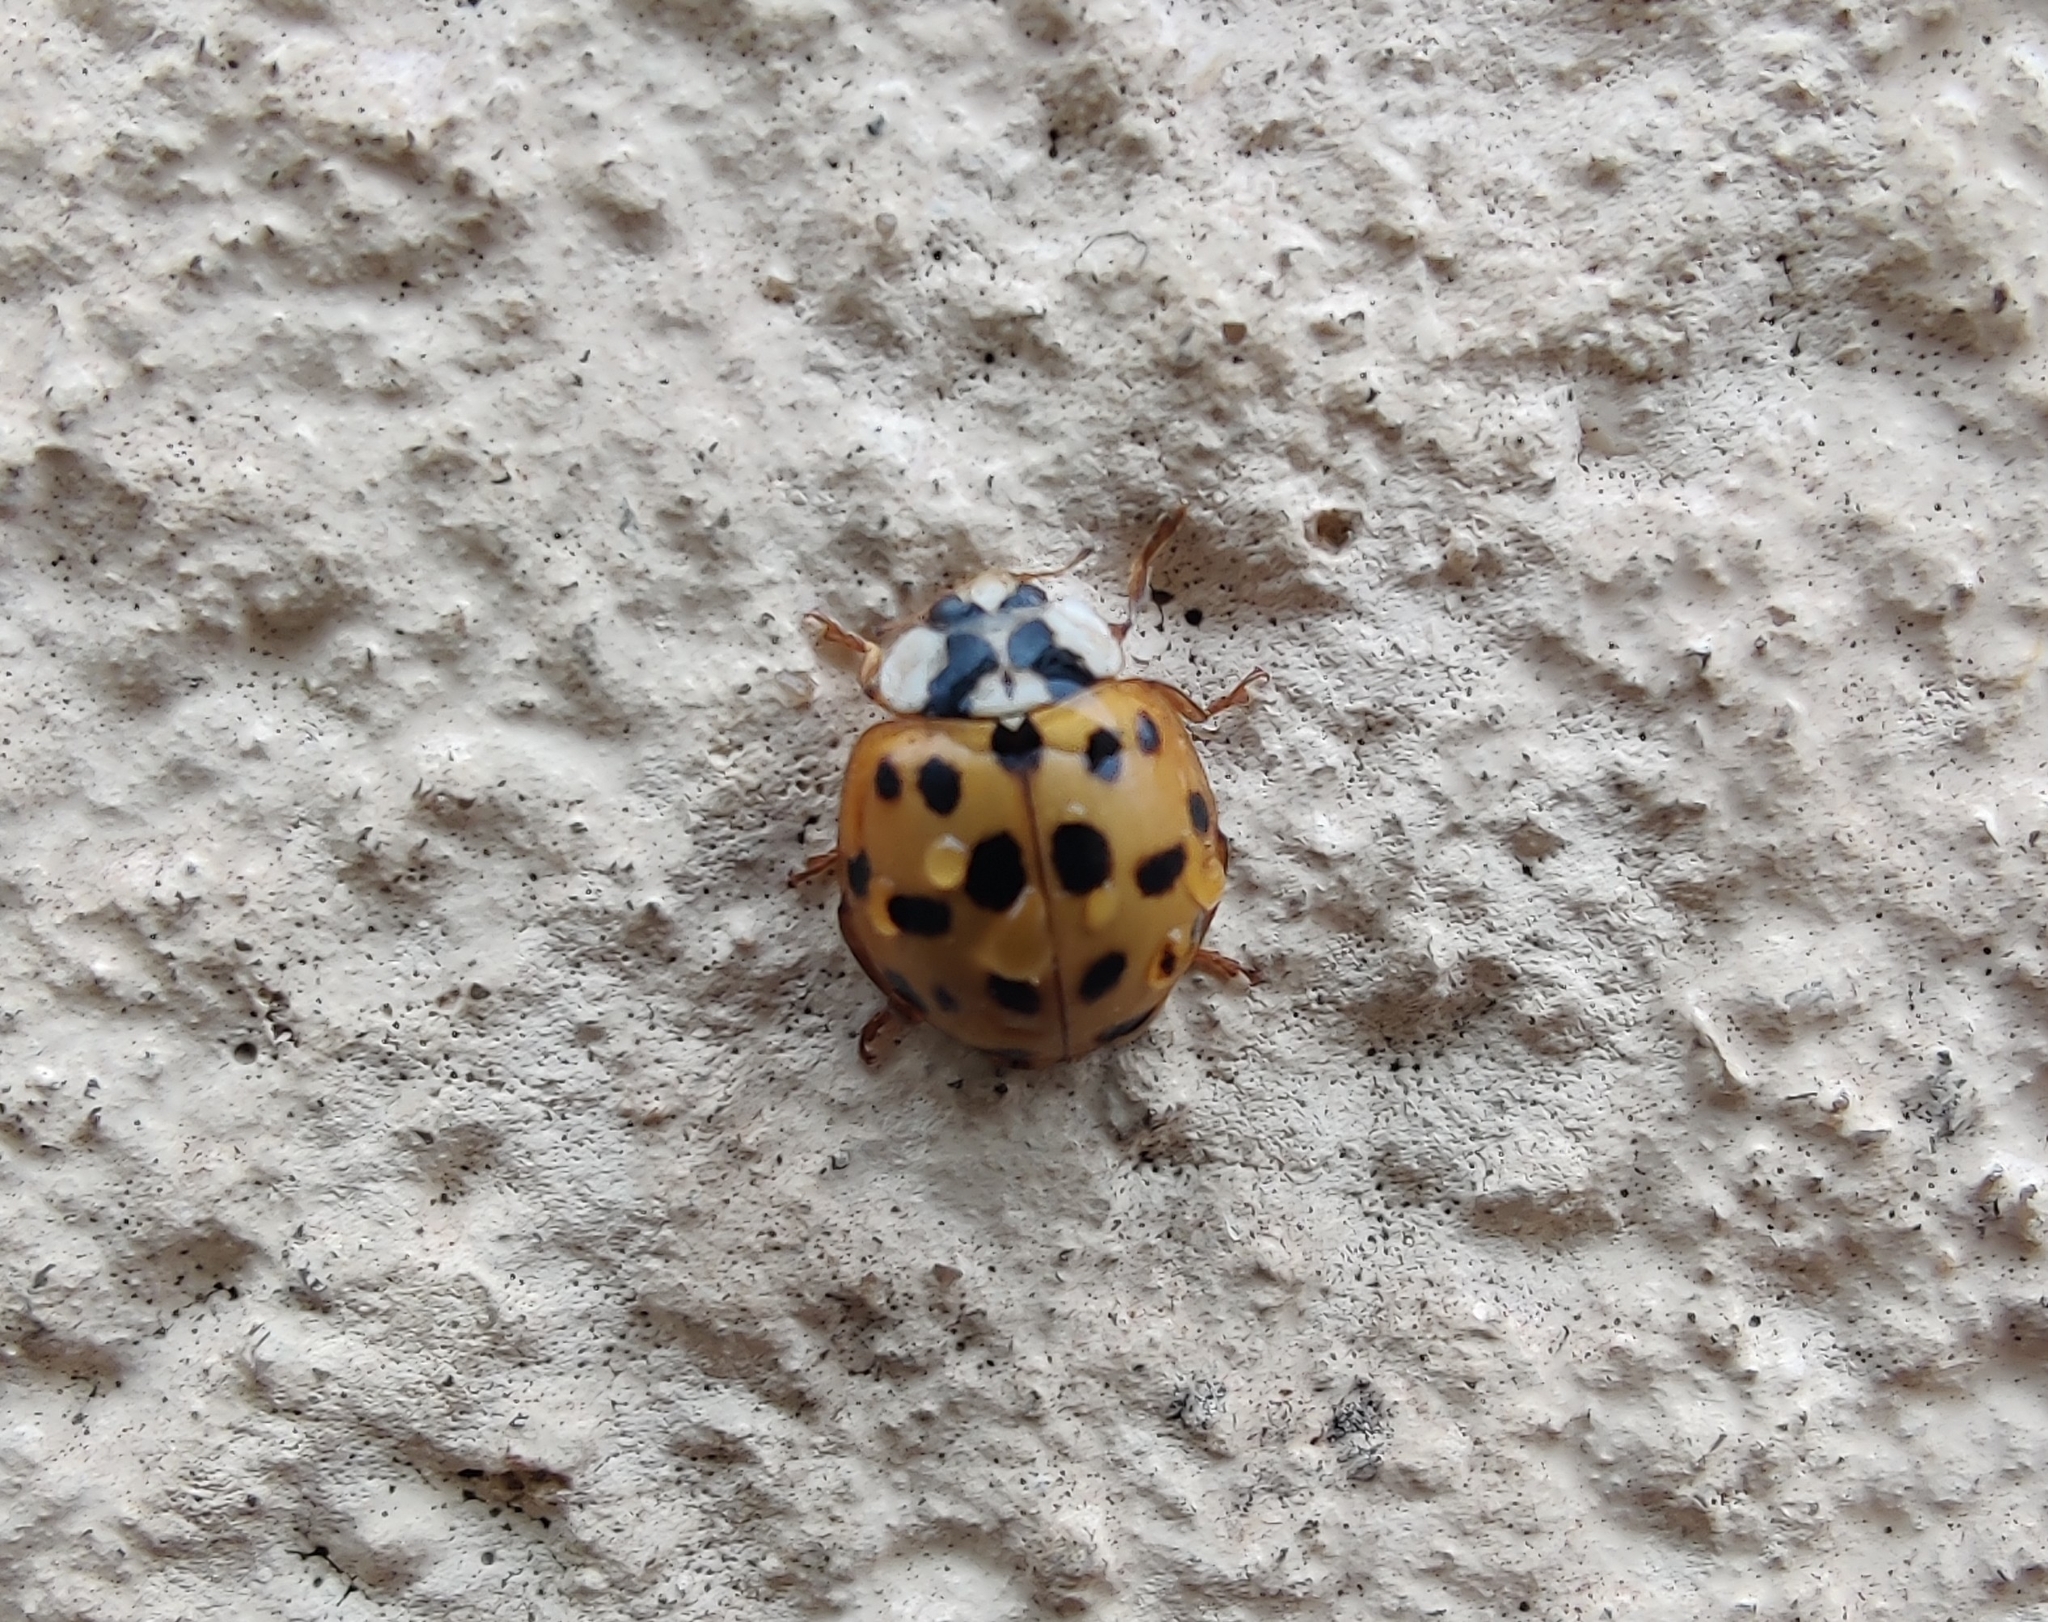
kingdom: Animalia
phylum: Arthropoda
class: Insecta
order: Coleoptera
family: Coccinellidae
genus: Harmonia
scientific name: Harmonia axyridis
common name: Harlequin ladybird
